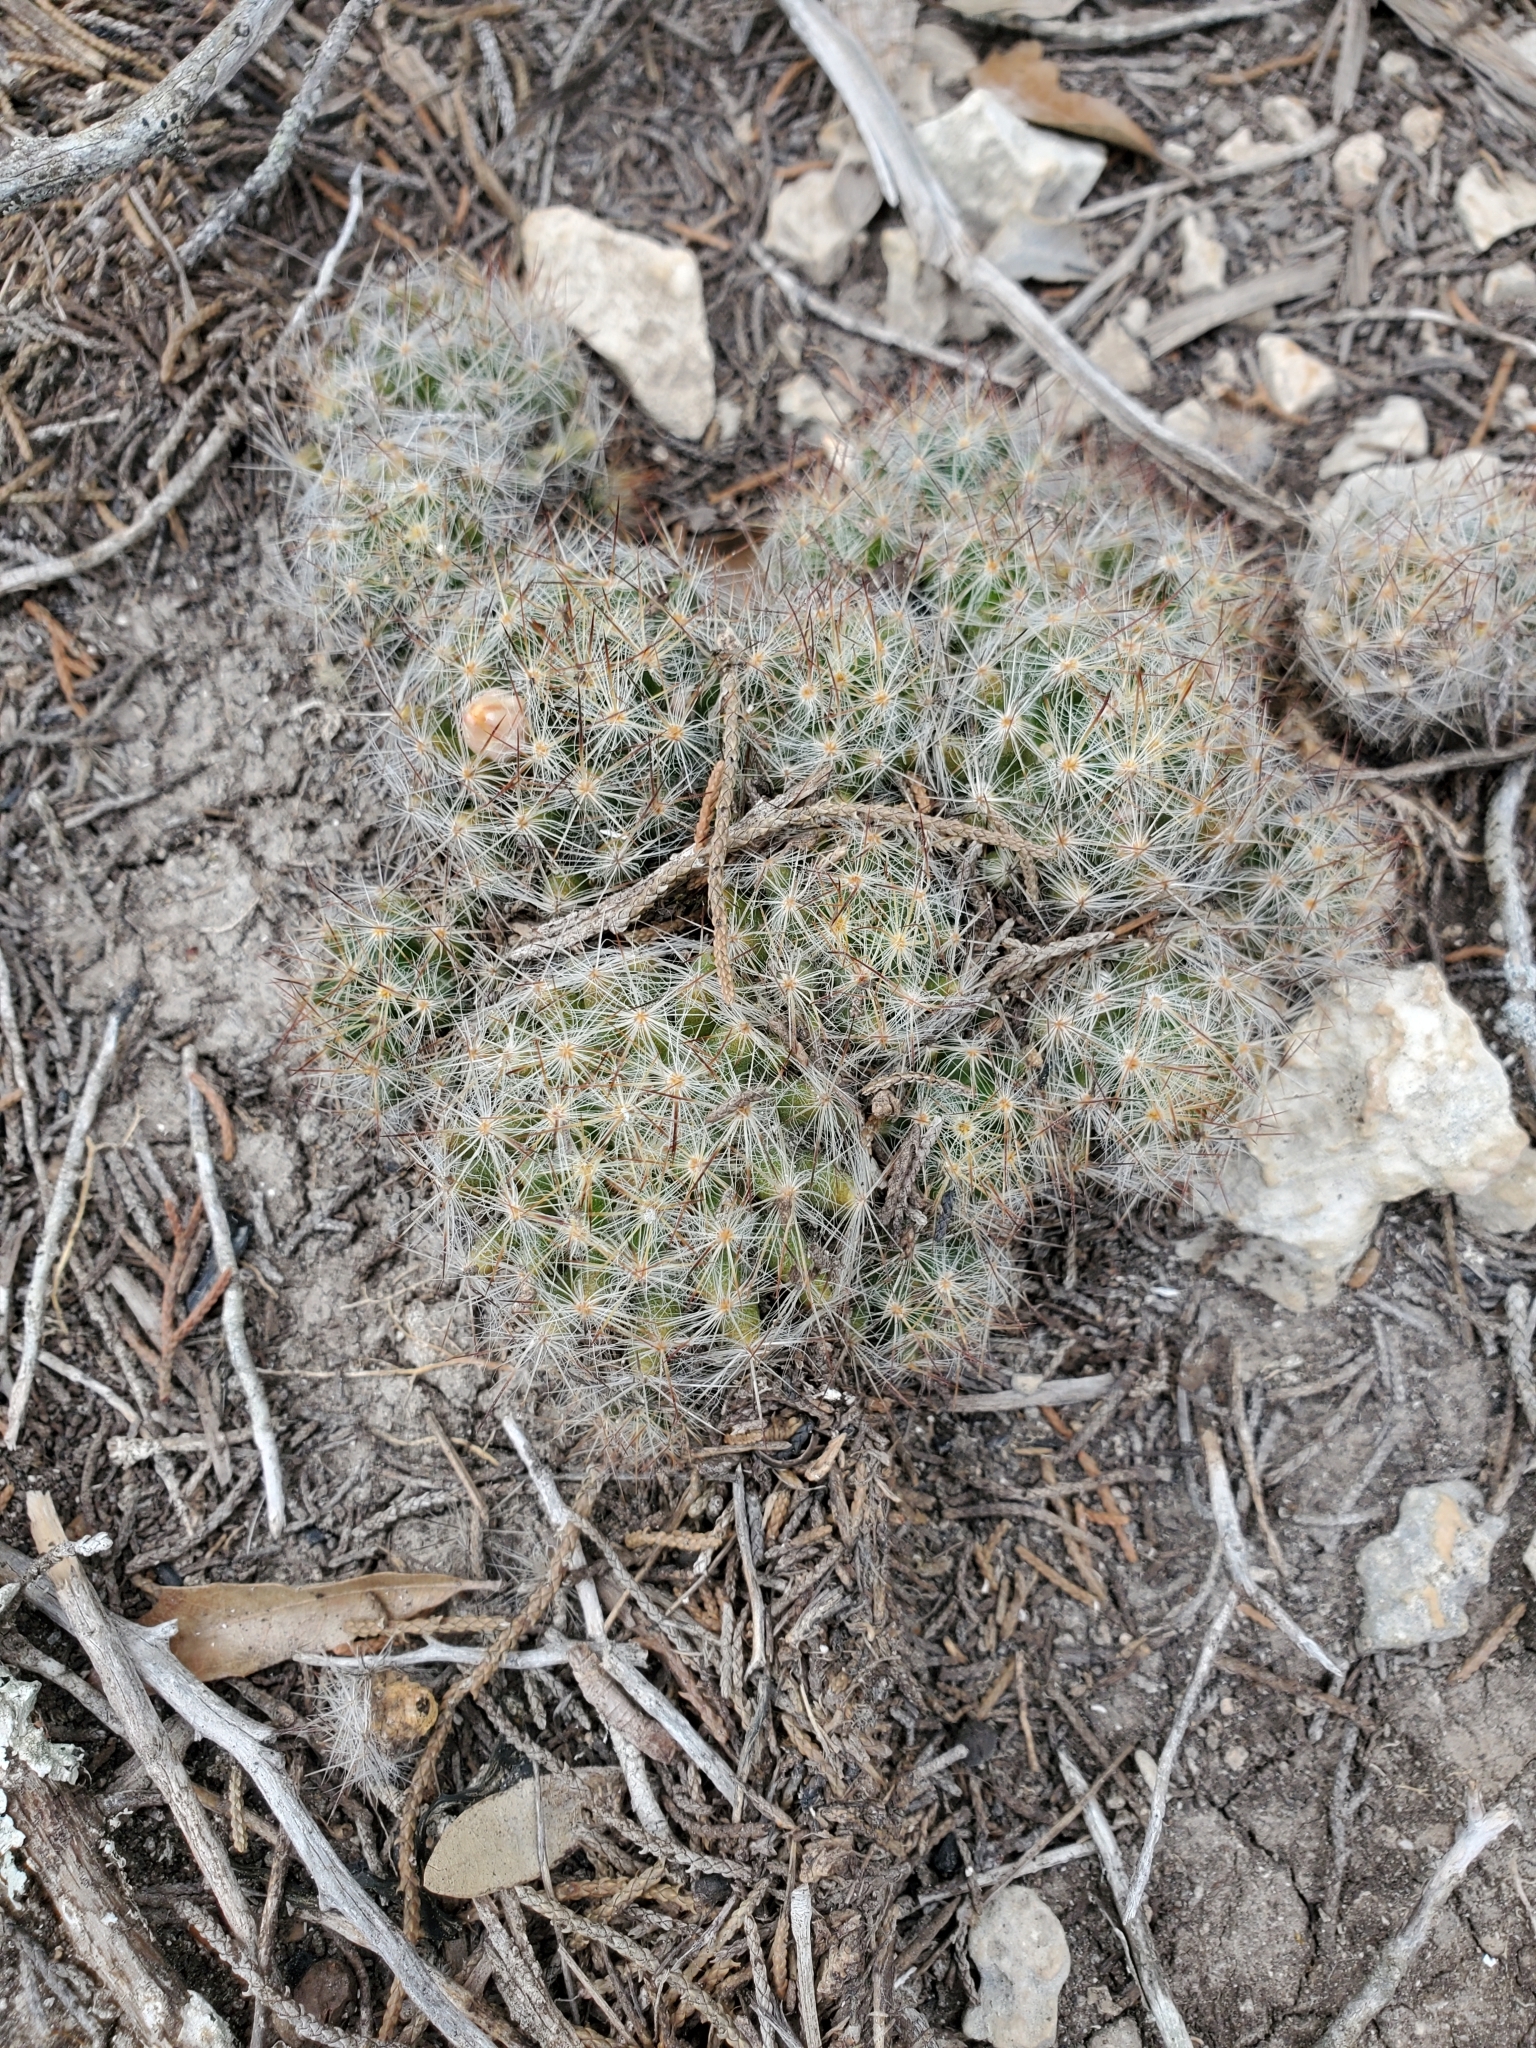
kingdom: Plantae
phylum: Tracheophyta
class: Magnoliopsida
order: Caryophyllales
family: Cactaceae
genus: Mammillaria
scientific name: Mammillaria prolifera
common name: Texas nipple cactus
